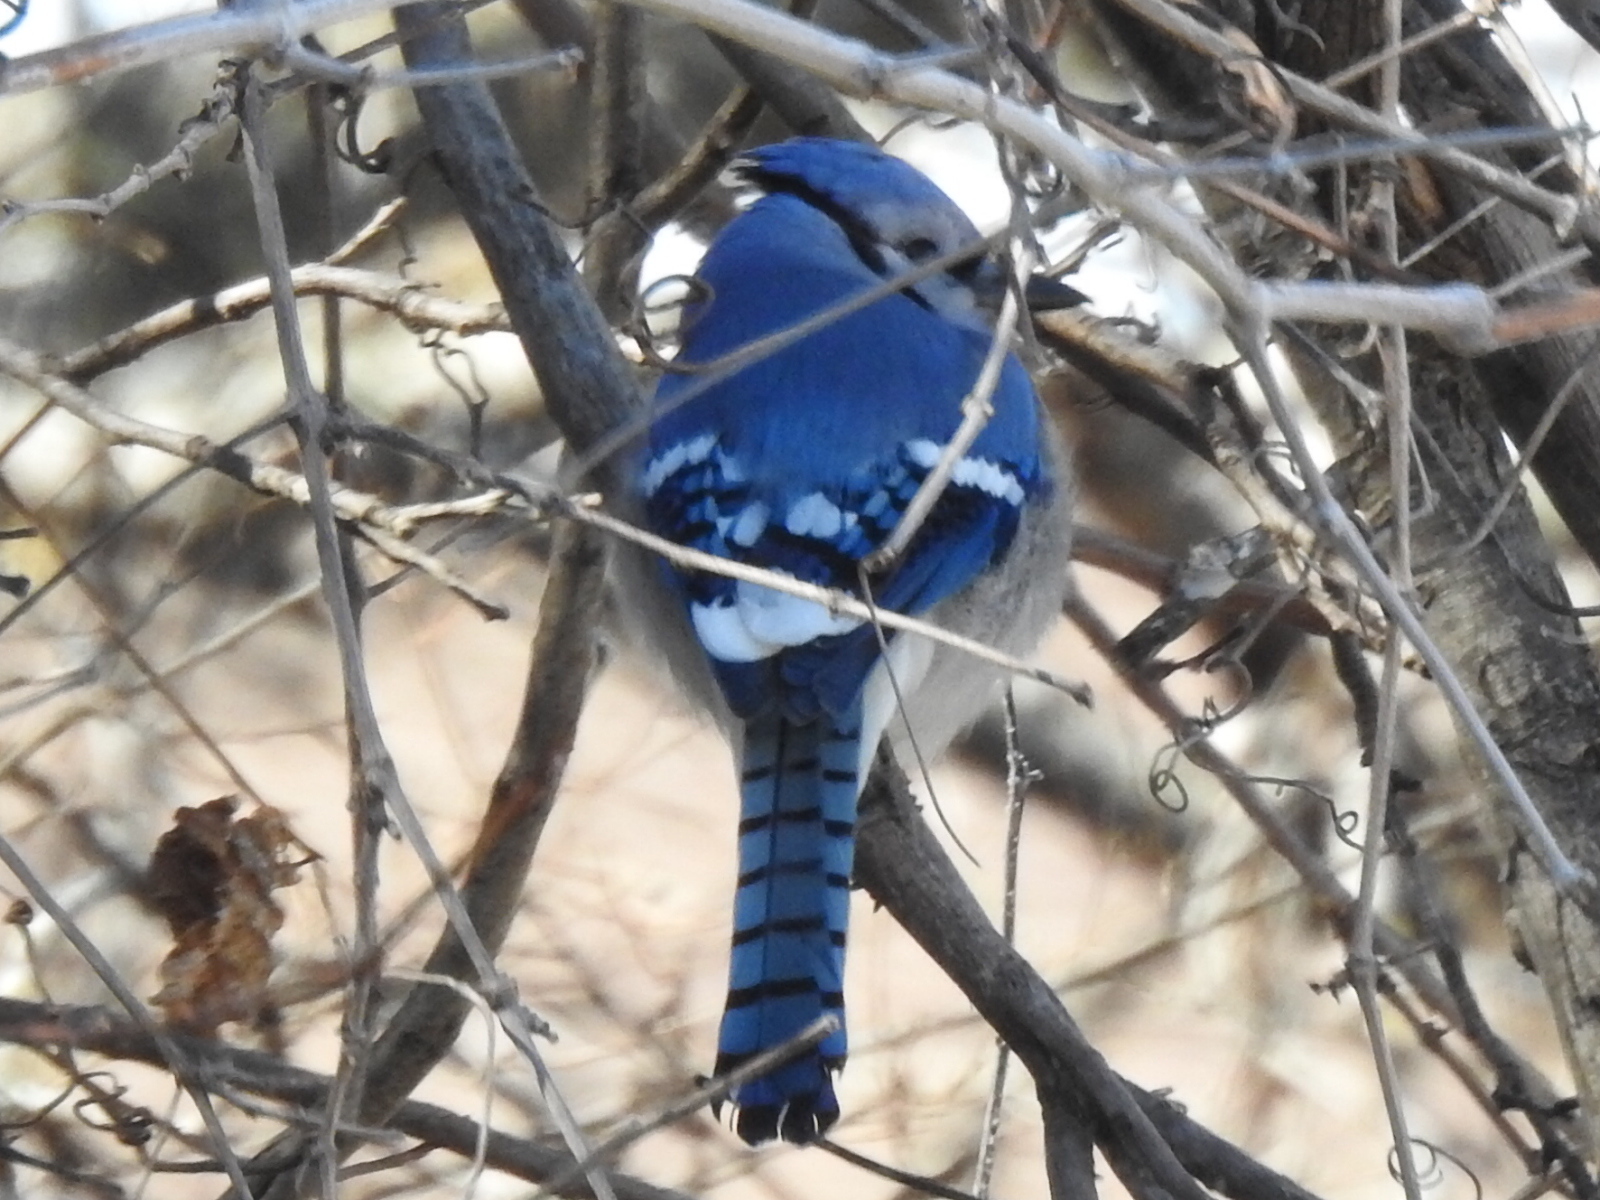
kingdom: Animalia
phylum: Chordata
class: Aves
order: Passeriformes
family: Corvidae
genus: Cyanocitta
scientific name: Cyanocitta cristata
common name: Blue jay
